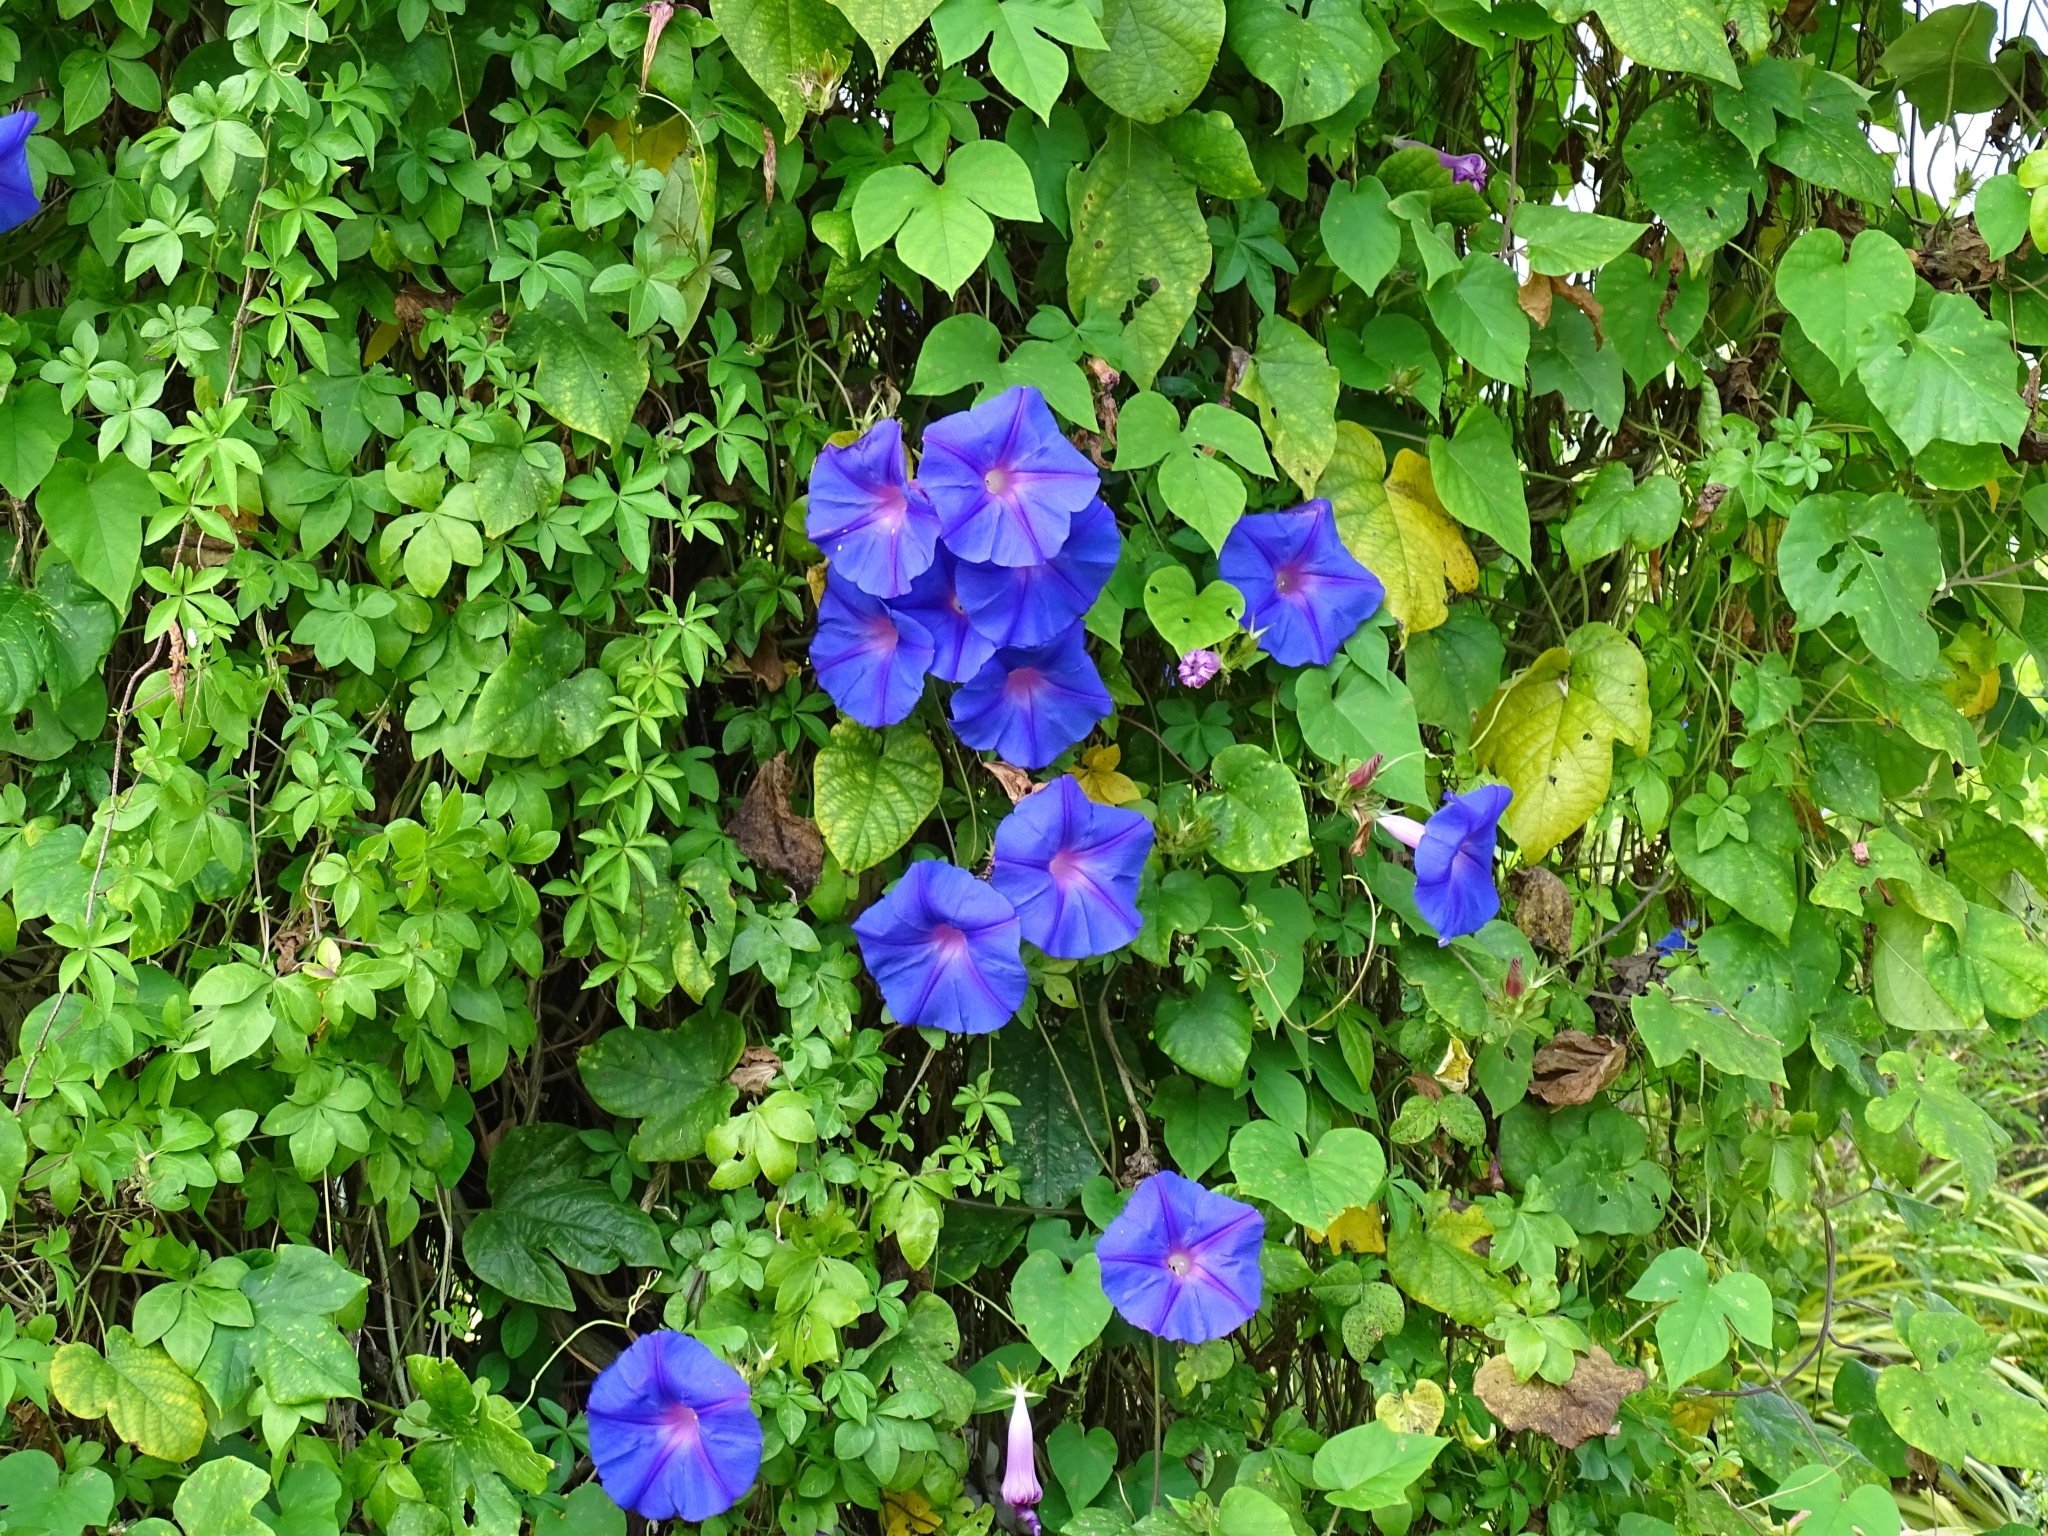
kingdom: Plantae
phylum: Tracheophyta
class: Magnoliopsida
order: Solanales
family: Convolvulaceae
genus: Ipomoea
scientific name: Ipomoea indica
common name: Blue dawnflower
